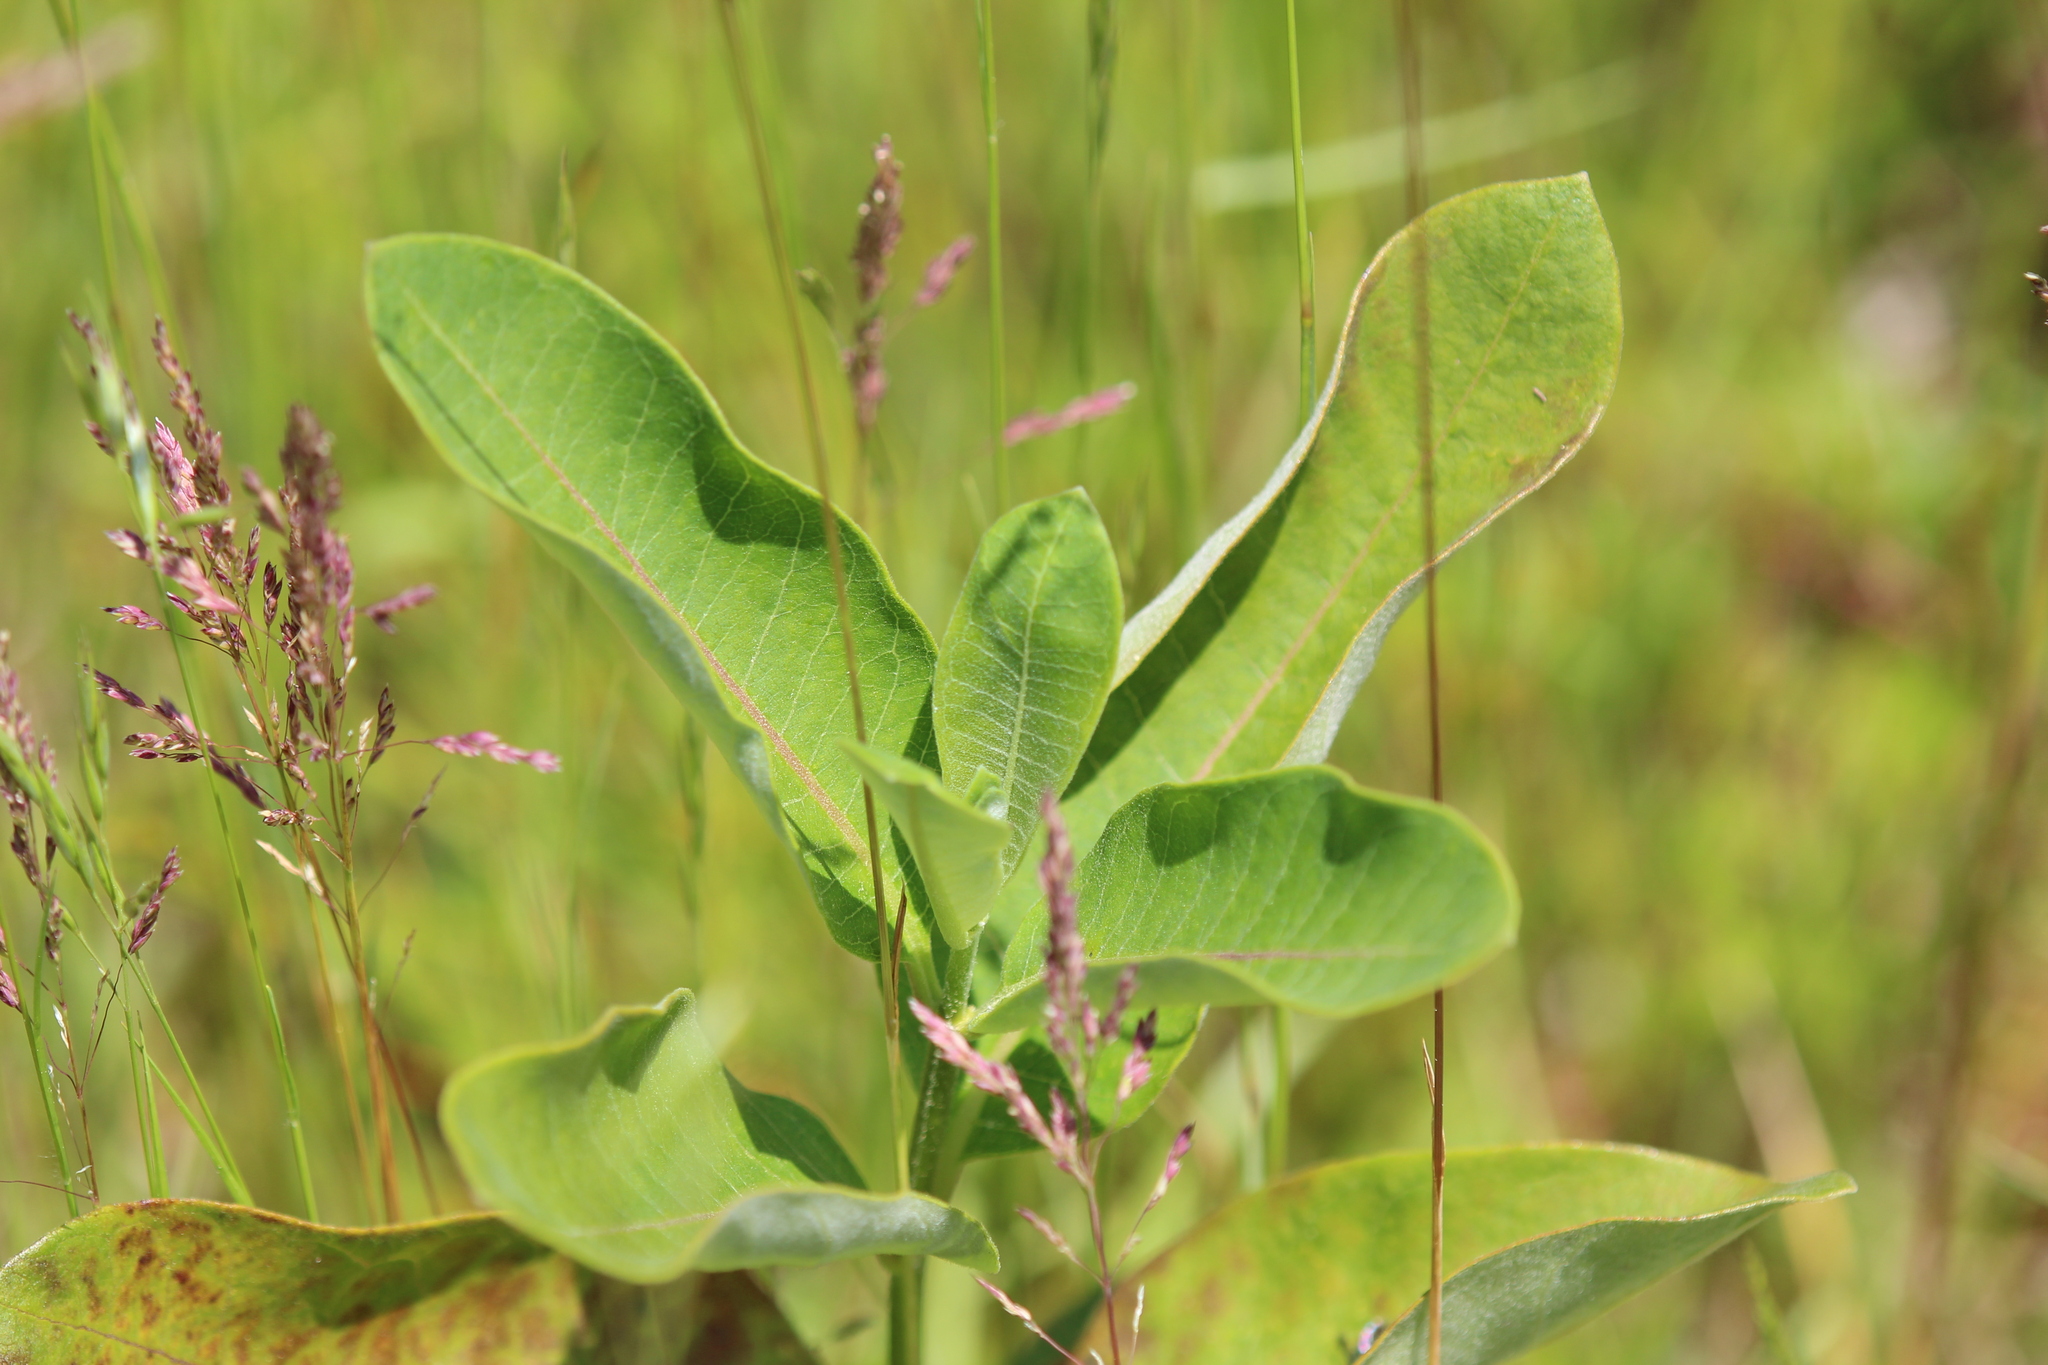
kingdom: Plantae
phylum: Tracheophyta
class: Magnoliopsida
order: Gentianales
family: Apocynaceae
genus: Asclepias
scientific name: Asclepias syriaca
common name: Common milkweed
